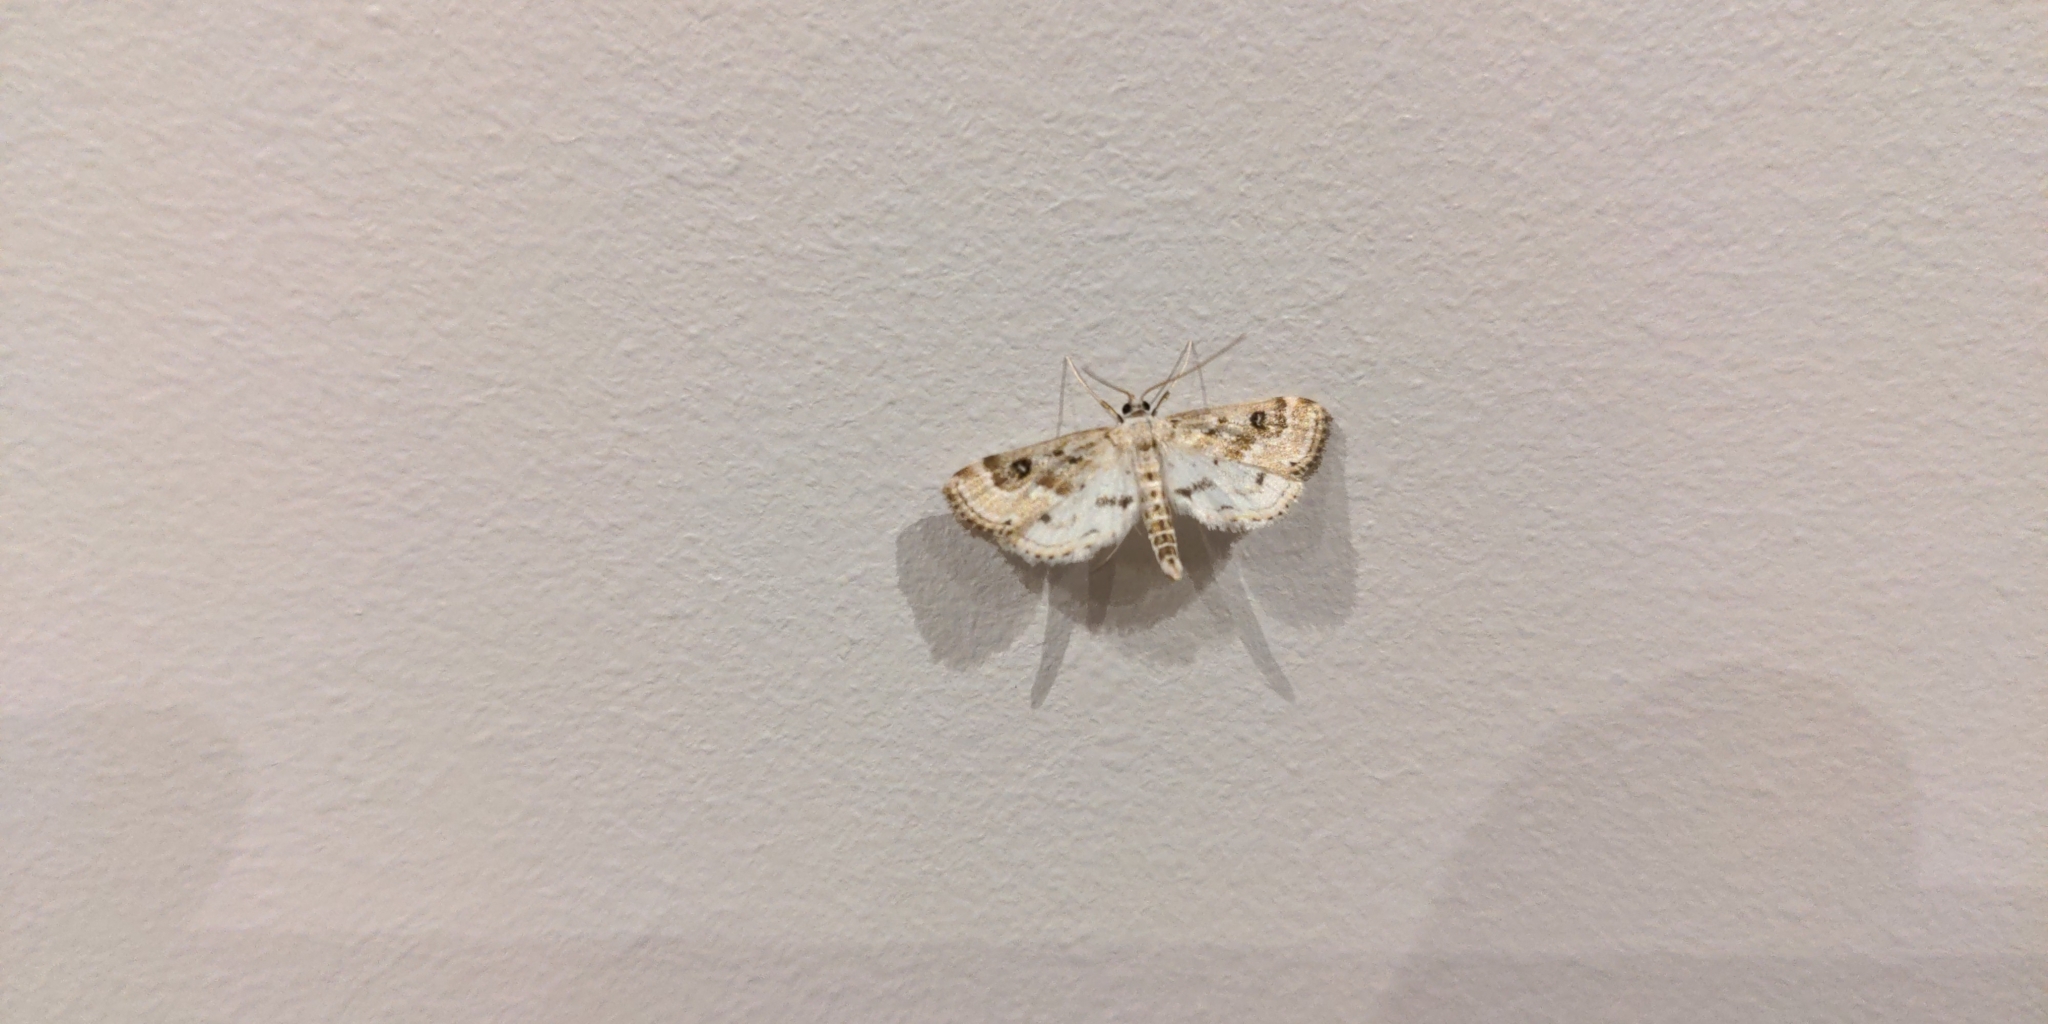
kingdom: Animalia
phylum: Arthropoda
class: Insecta
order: Lepidoptera
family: Crambidae
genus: Parapoynx
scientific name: Parapoynx stratiotata
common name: Ringed china-mark
